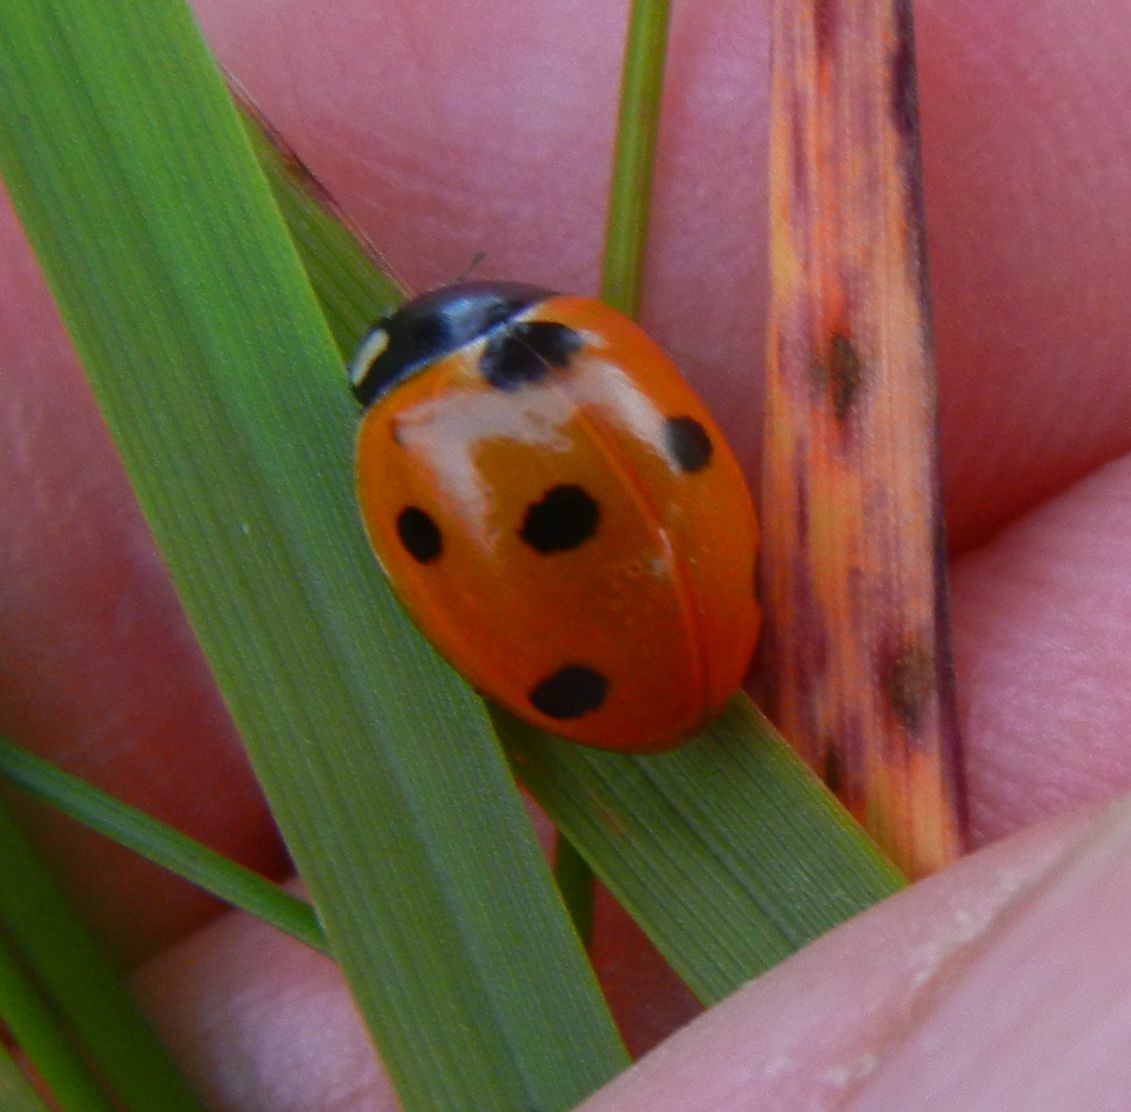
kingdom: Animalia
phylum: Arthropoda
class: Insecta
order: Coleoptera
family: Coccinellidae
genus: Coccinella
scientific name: Coccinella septempunctata
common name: Sevenspotted lady beetle
